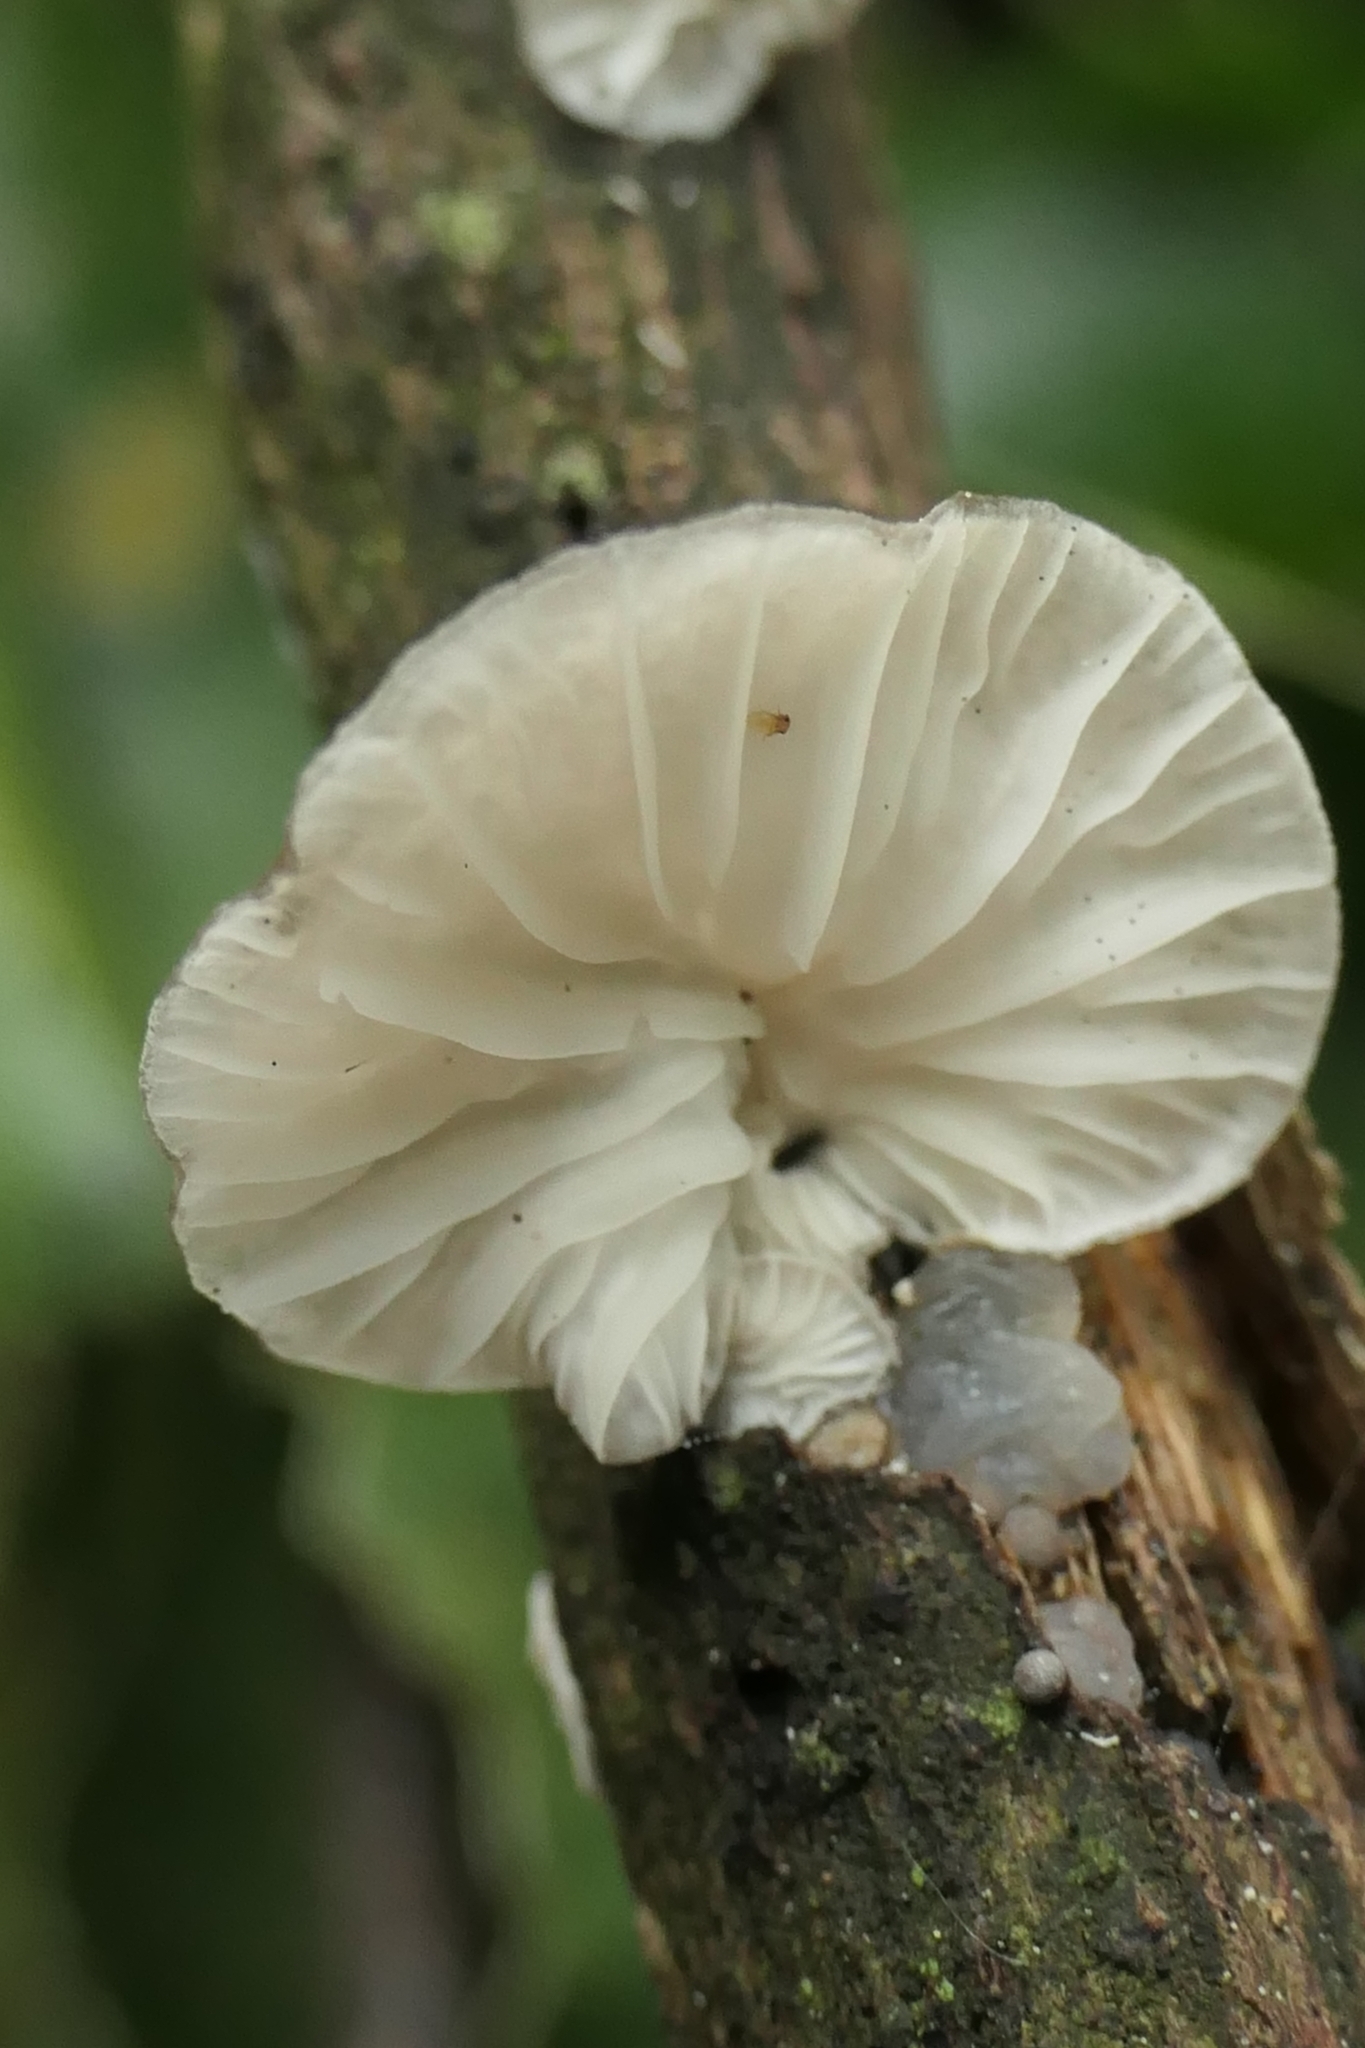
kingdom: Fungi
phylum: Basidiomycota
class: Agaricomycetes
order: Agaricales
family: Pleurotaceae
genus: Hohenbuehelia
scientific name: Hohenbuehelia
